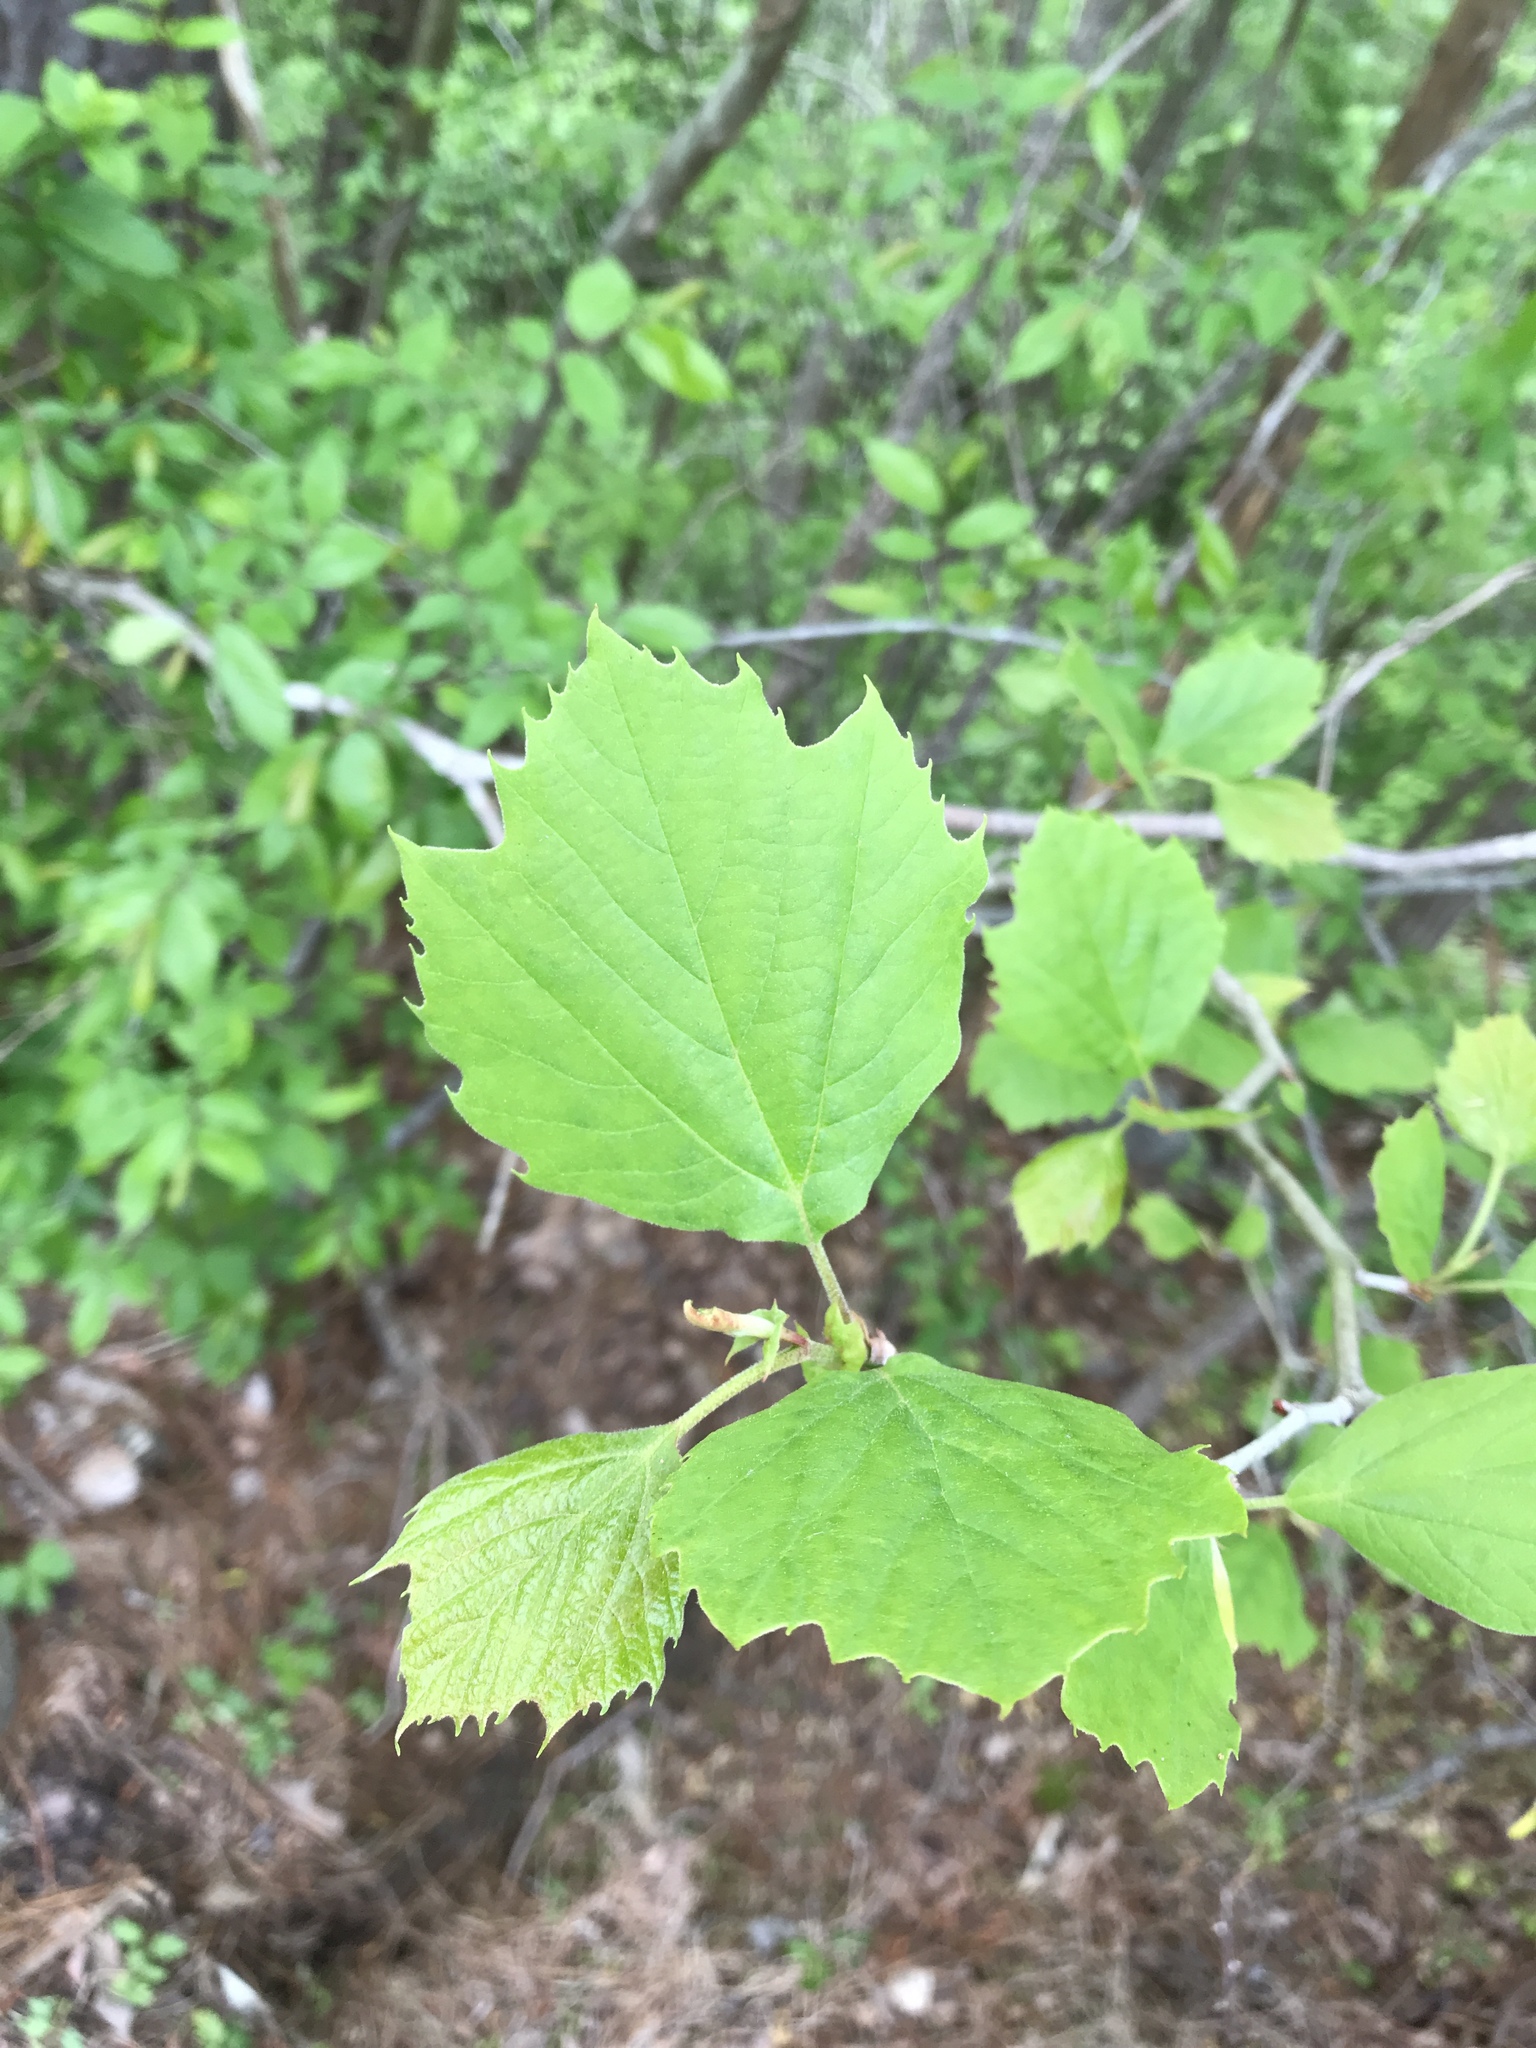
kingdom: Plantae
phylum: Tracheophyta
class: Magnoliopsida
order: Proteales
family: Platanaceae
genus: Platanus
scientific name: Platanus occidentalis
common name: American sycamore
